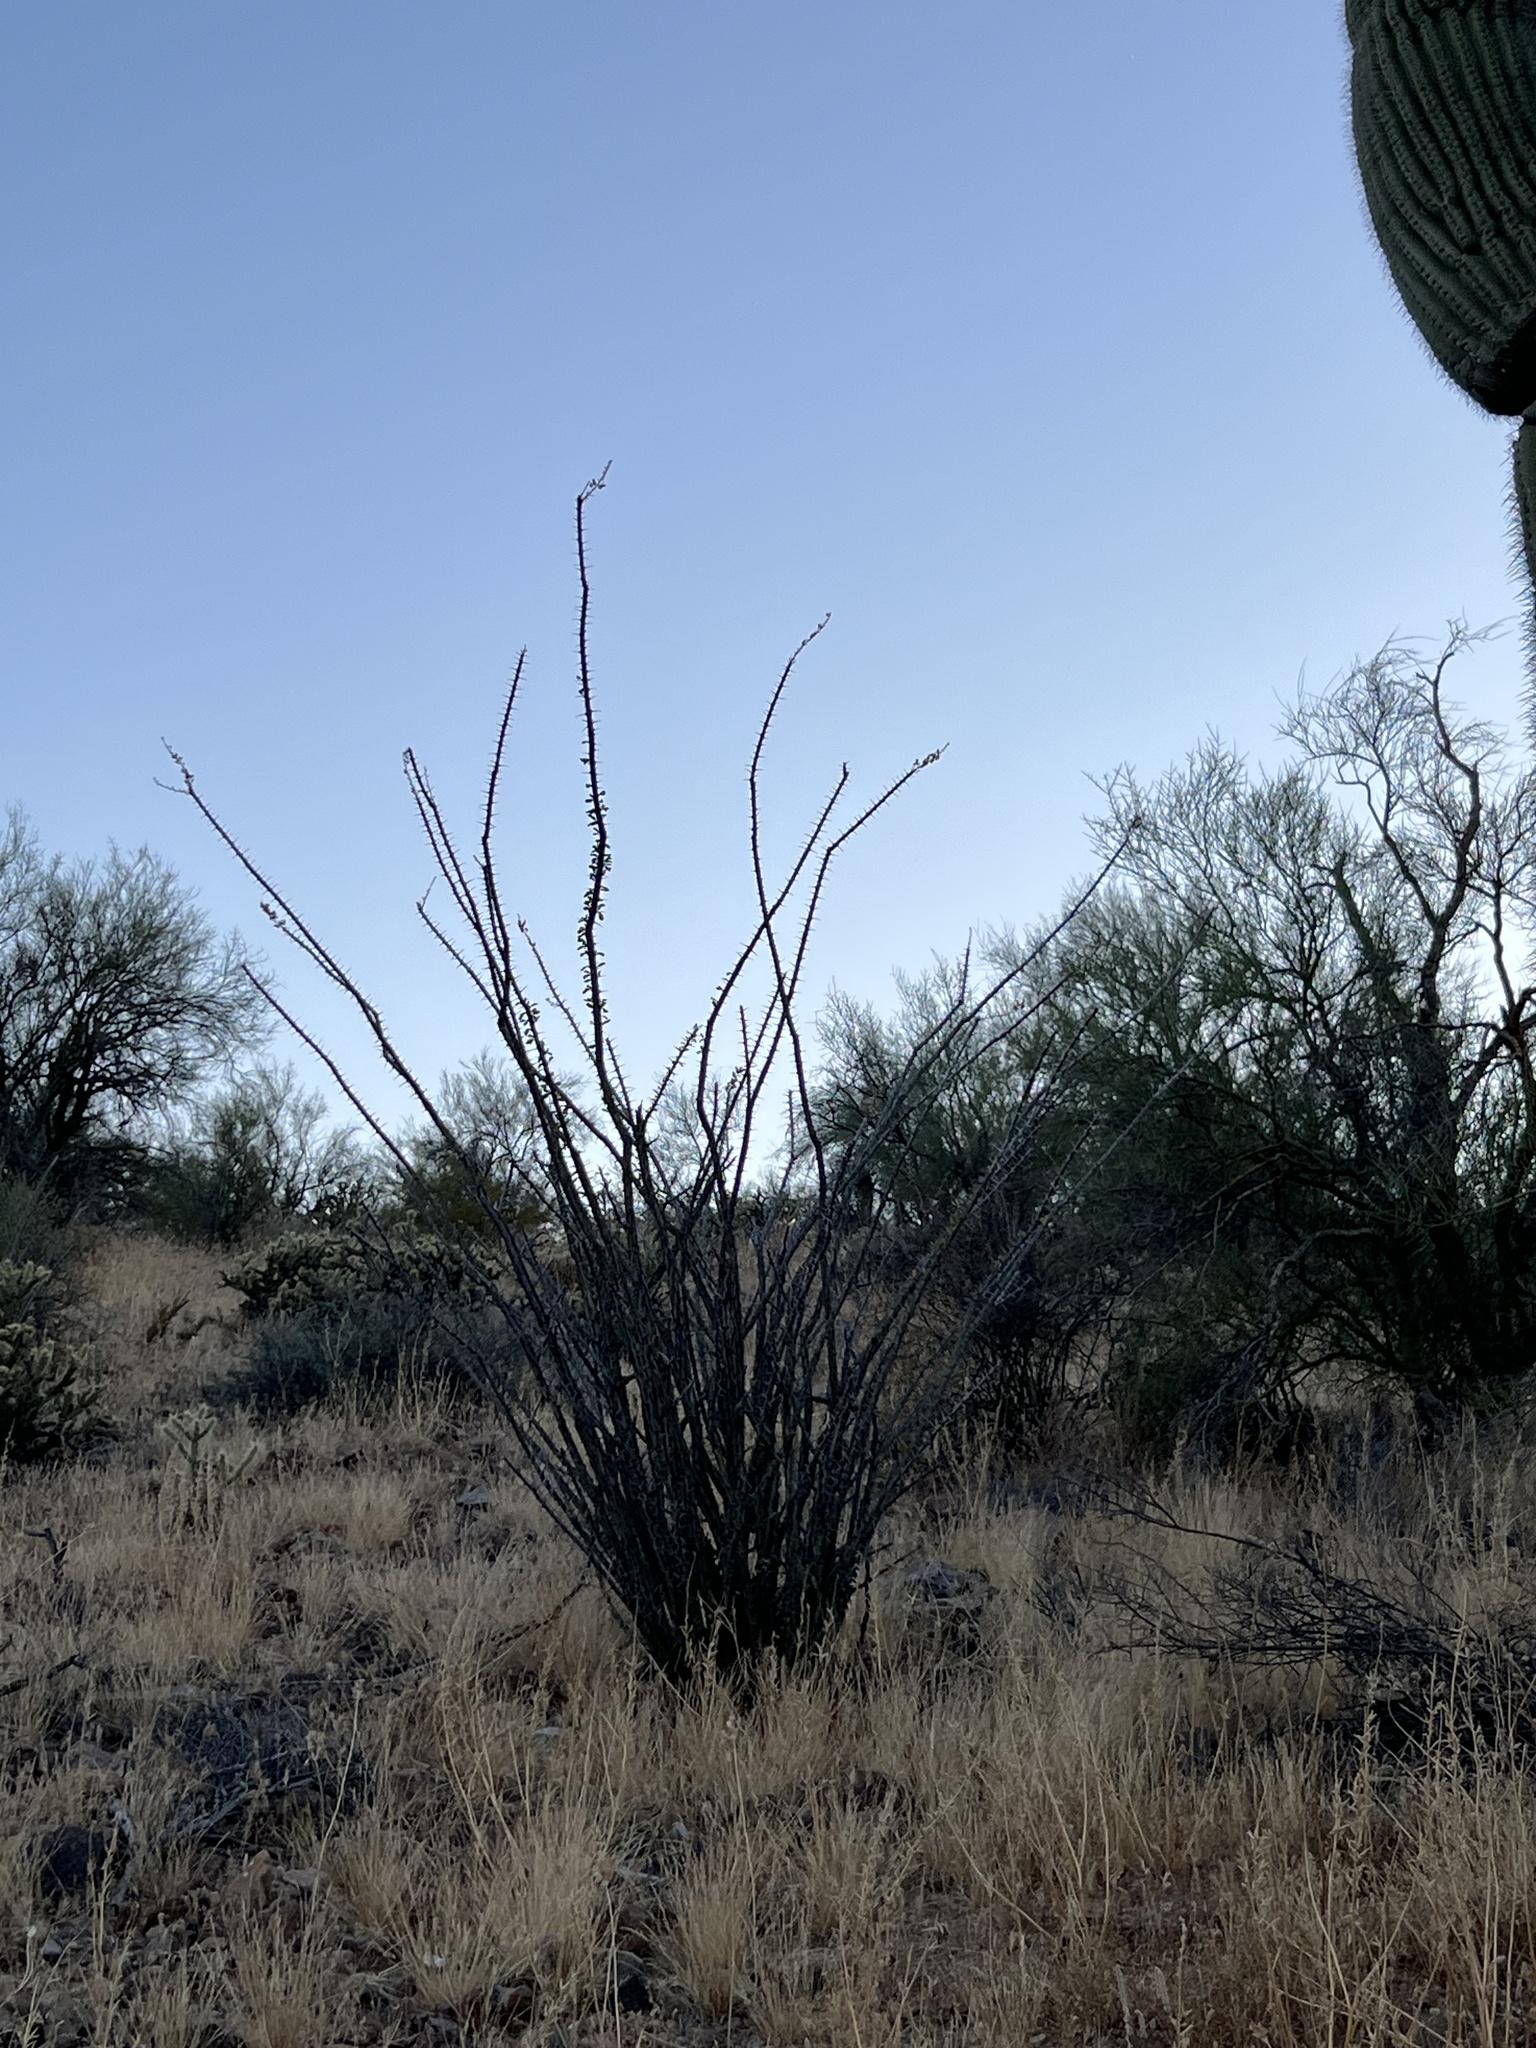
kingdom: Plantae
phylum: Tracheophyta
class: Magnoliopsida
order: Ericales
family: Fouquieriaceae
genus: Fouquieria
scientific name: Fouquieria splendens
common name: Vine-cactus
